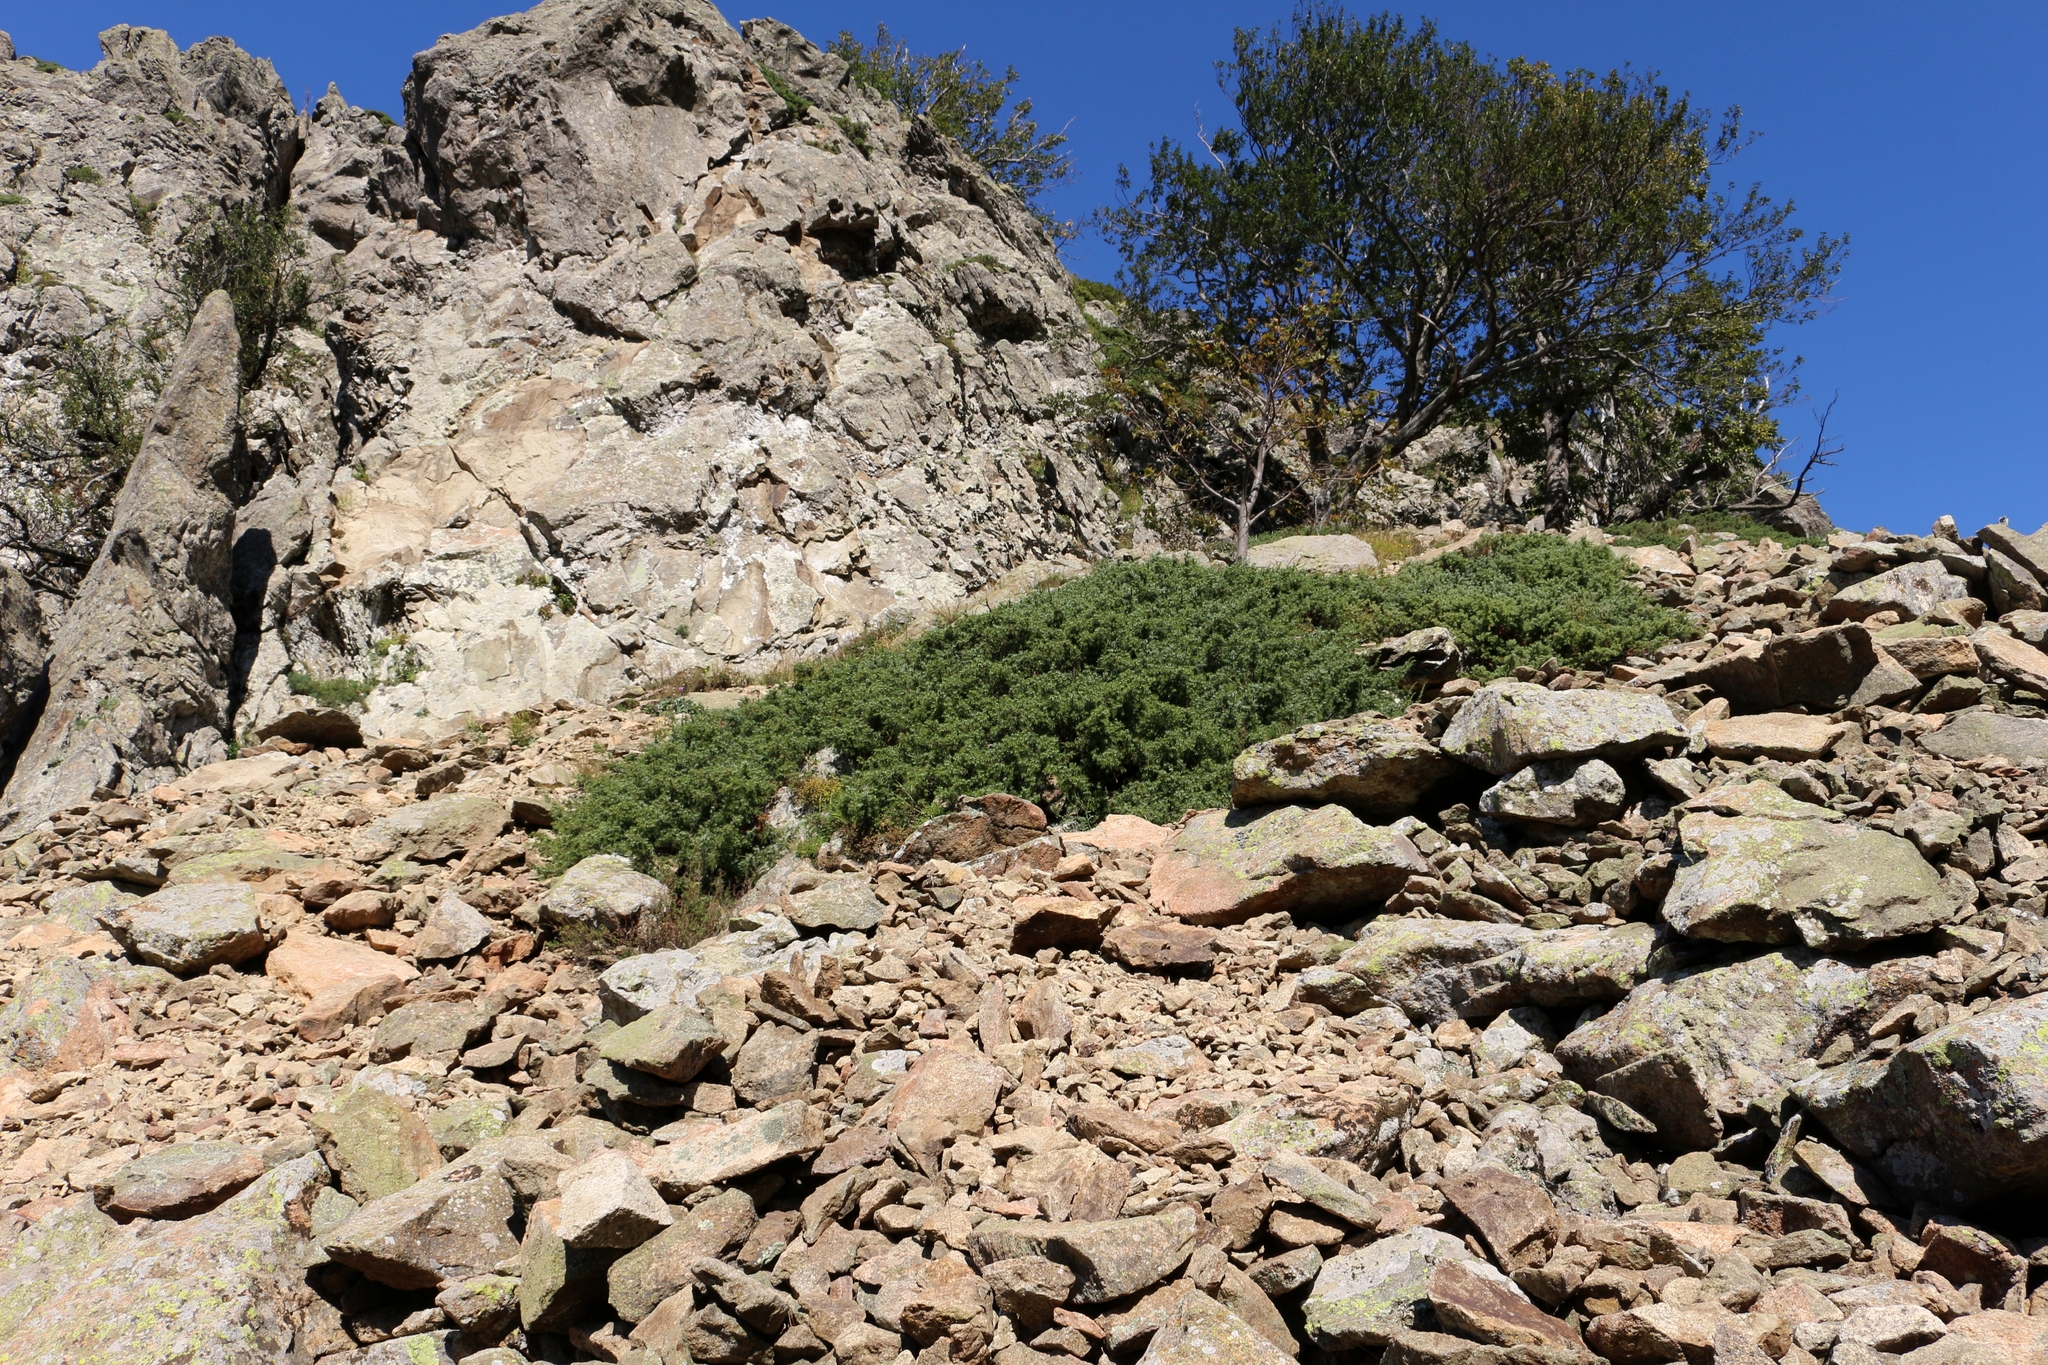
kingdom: Plantae
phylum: Tracheophyta
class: Pinopsida
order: Pinales
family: Cupressaceae
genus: Juniperus
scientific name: Juniperus communis
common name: Common juniper
